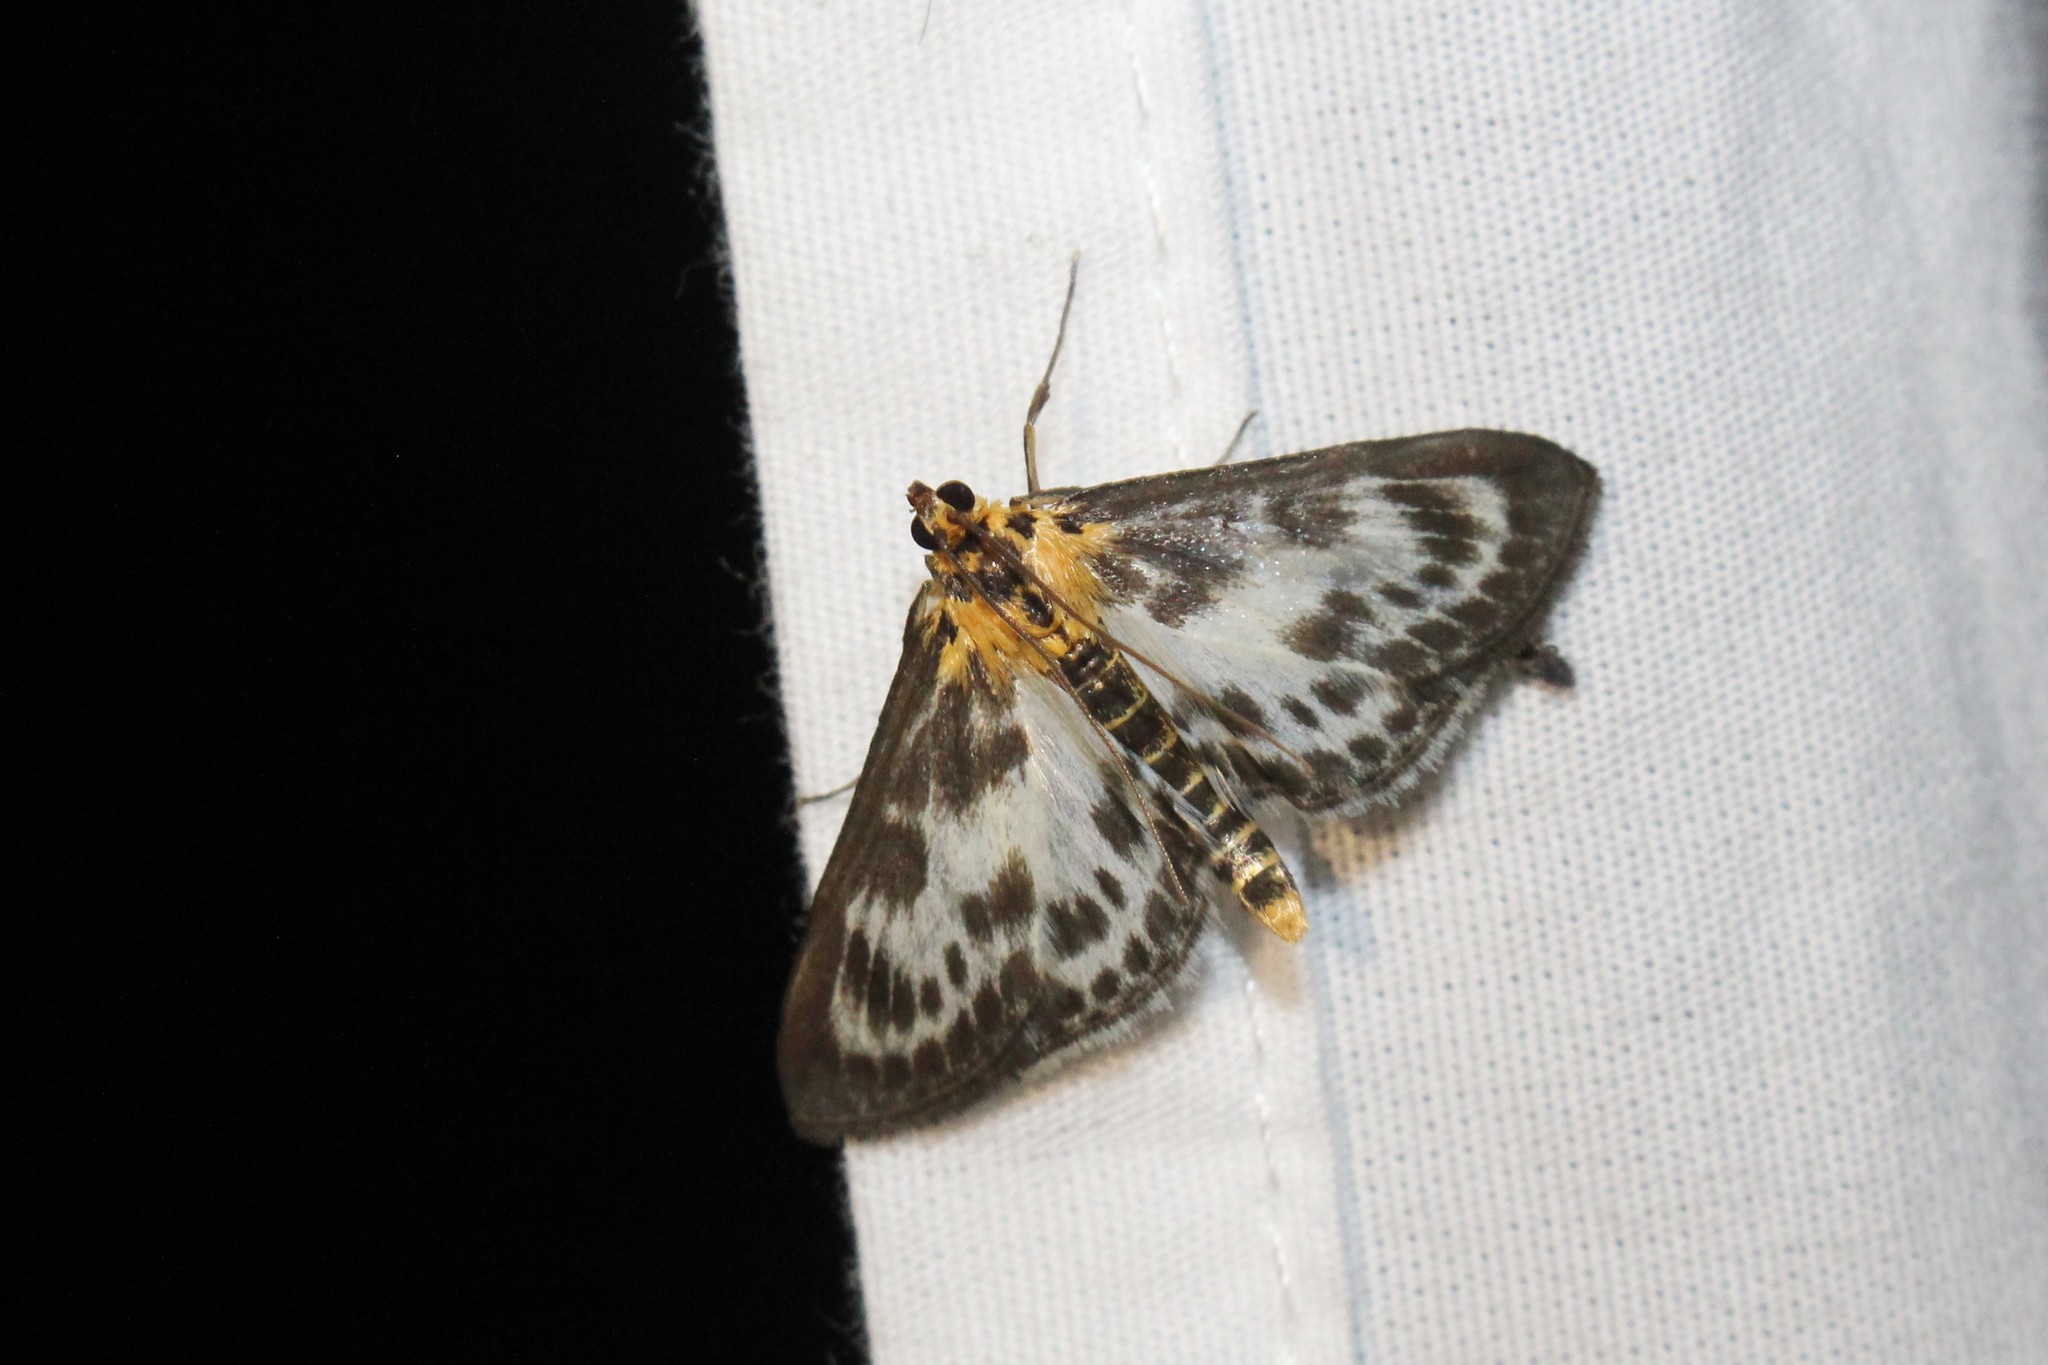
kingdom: Animalia
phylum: Arthropoda
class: Insecta
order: Lepidoptera
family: Crambidae
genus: Anania
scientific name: Anania hortulata
